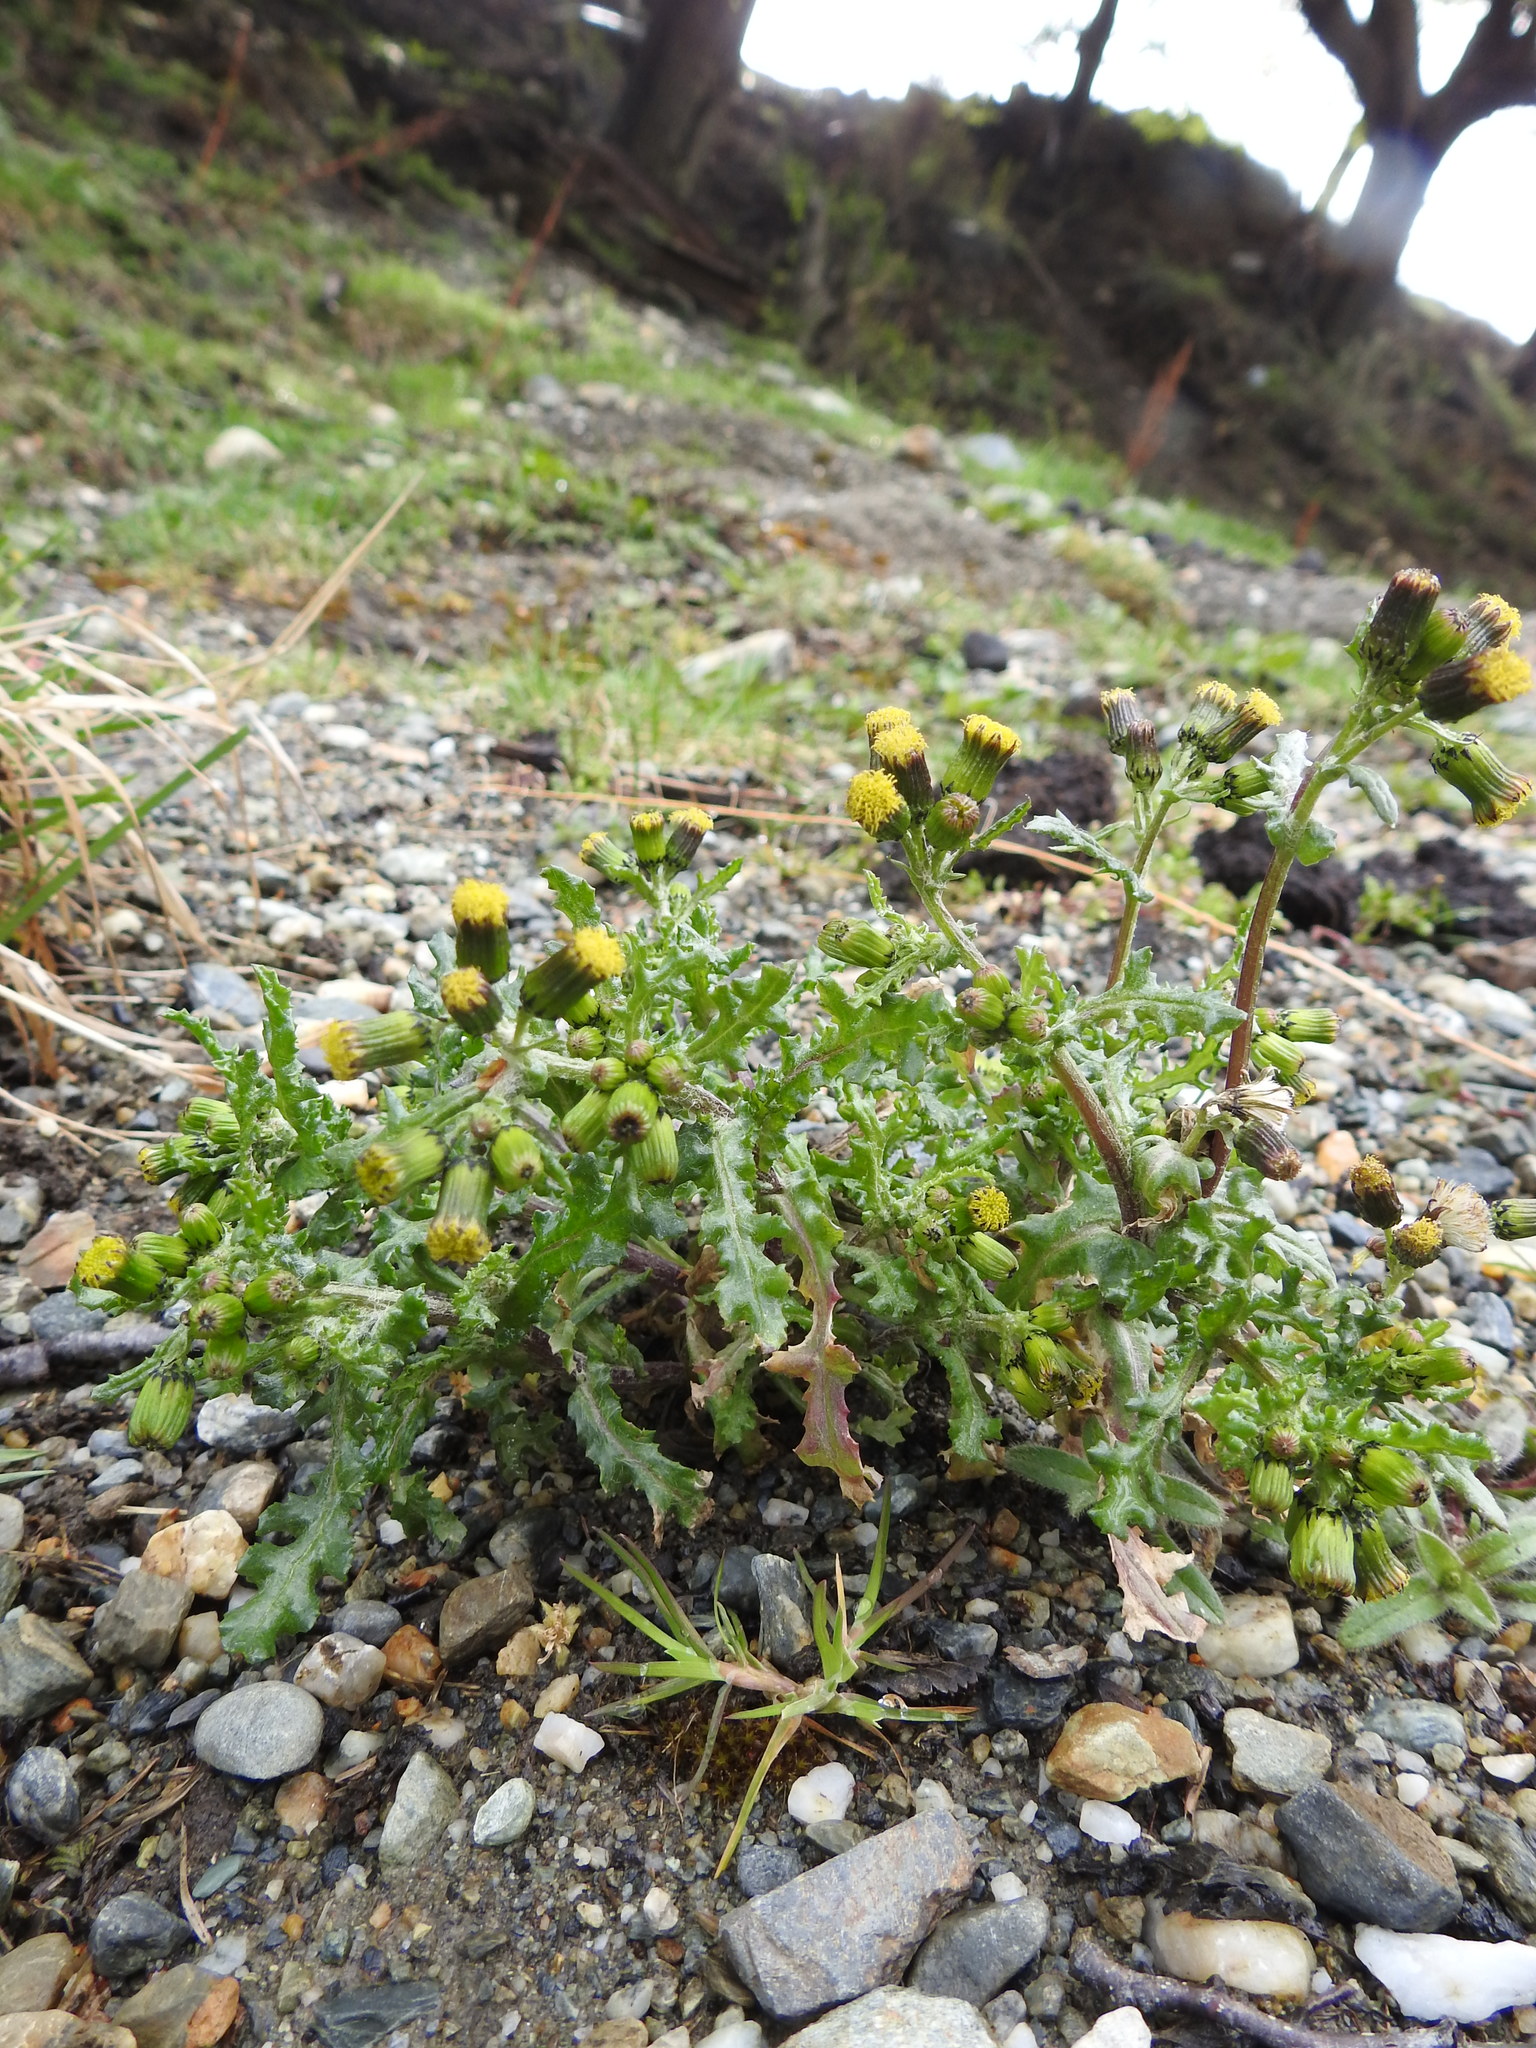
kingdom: Plantae
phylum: Tracheophyta
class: Magnoliopsida
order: Asterales
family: Asteraceae
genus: Senecio
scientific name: Senecio vulgaris
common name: Old-man-in-the-spring
